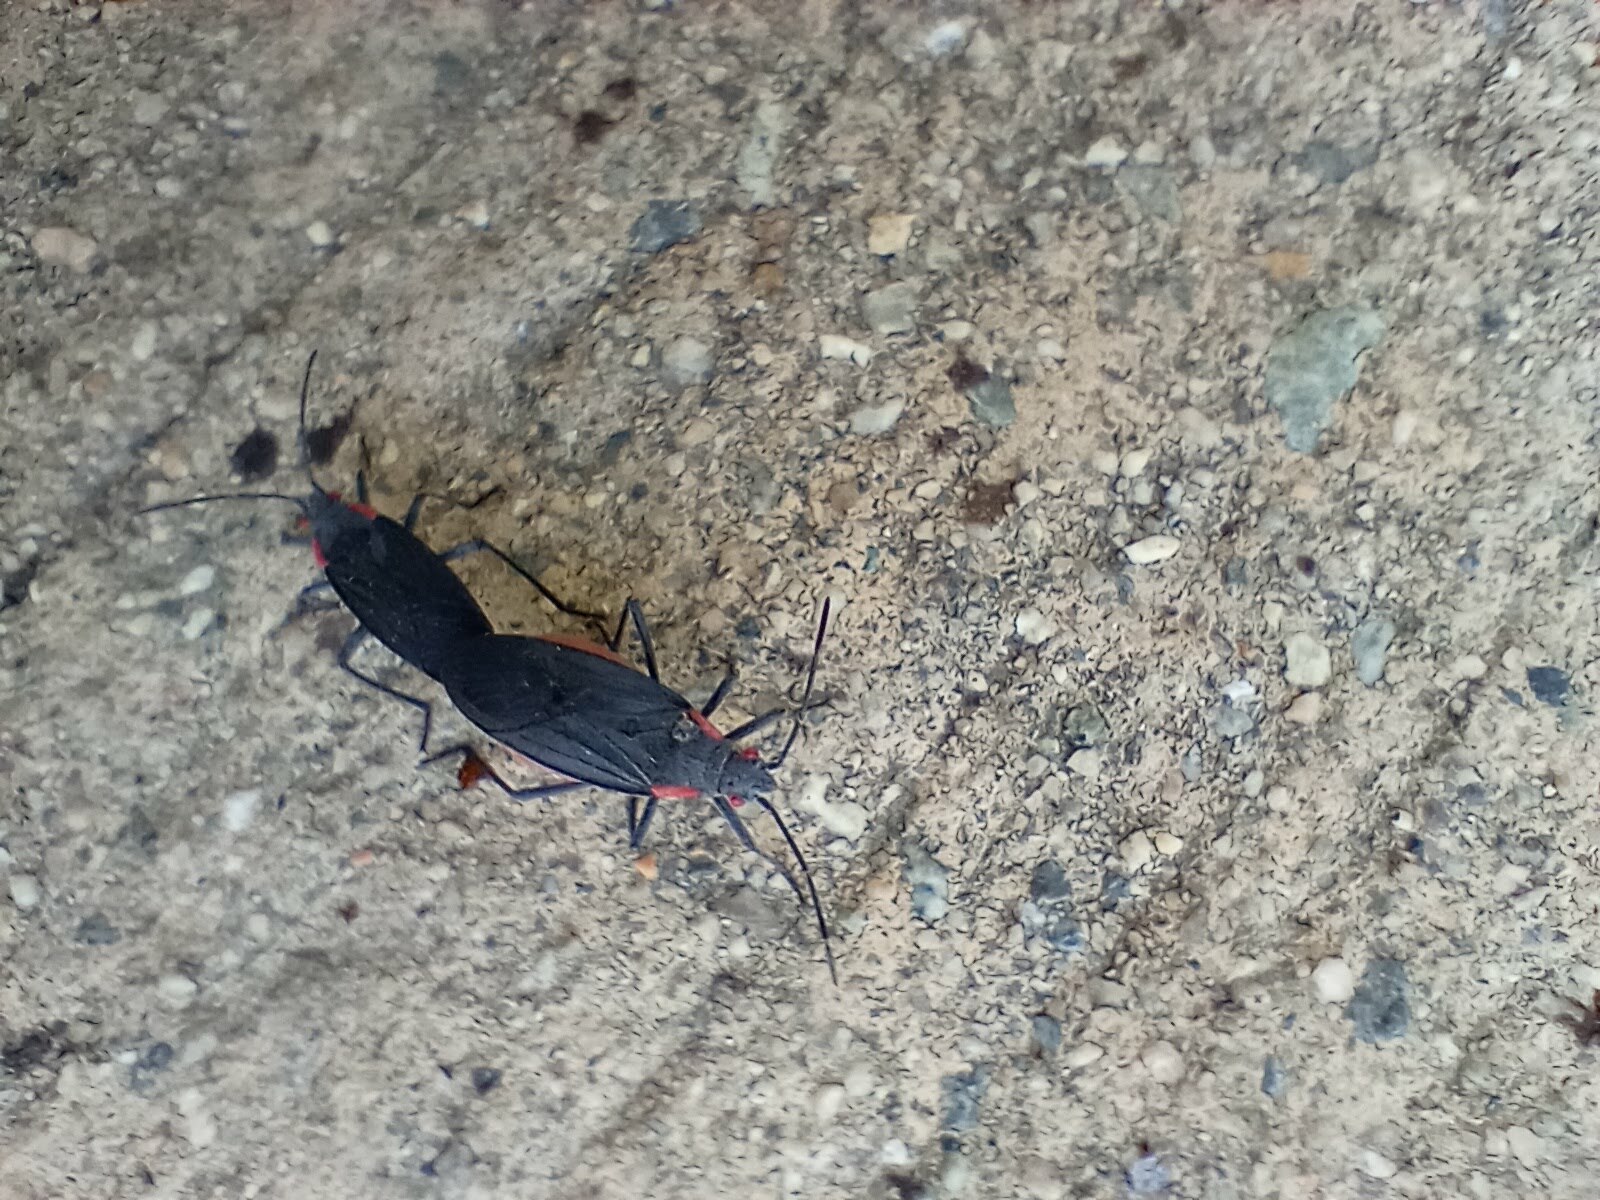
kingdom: Animalia
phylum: Arthropoda
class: Insecta
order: Hemiptera
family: Rhopalidae
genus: Jadera
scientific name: Jadera haematoloma
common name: Red-shouldered bug
